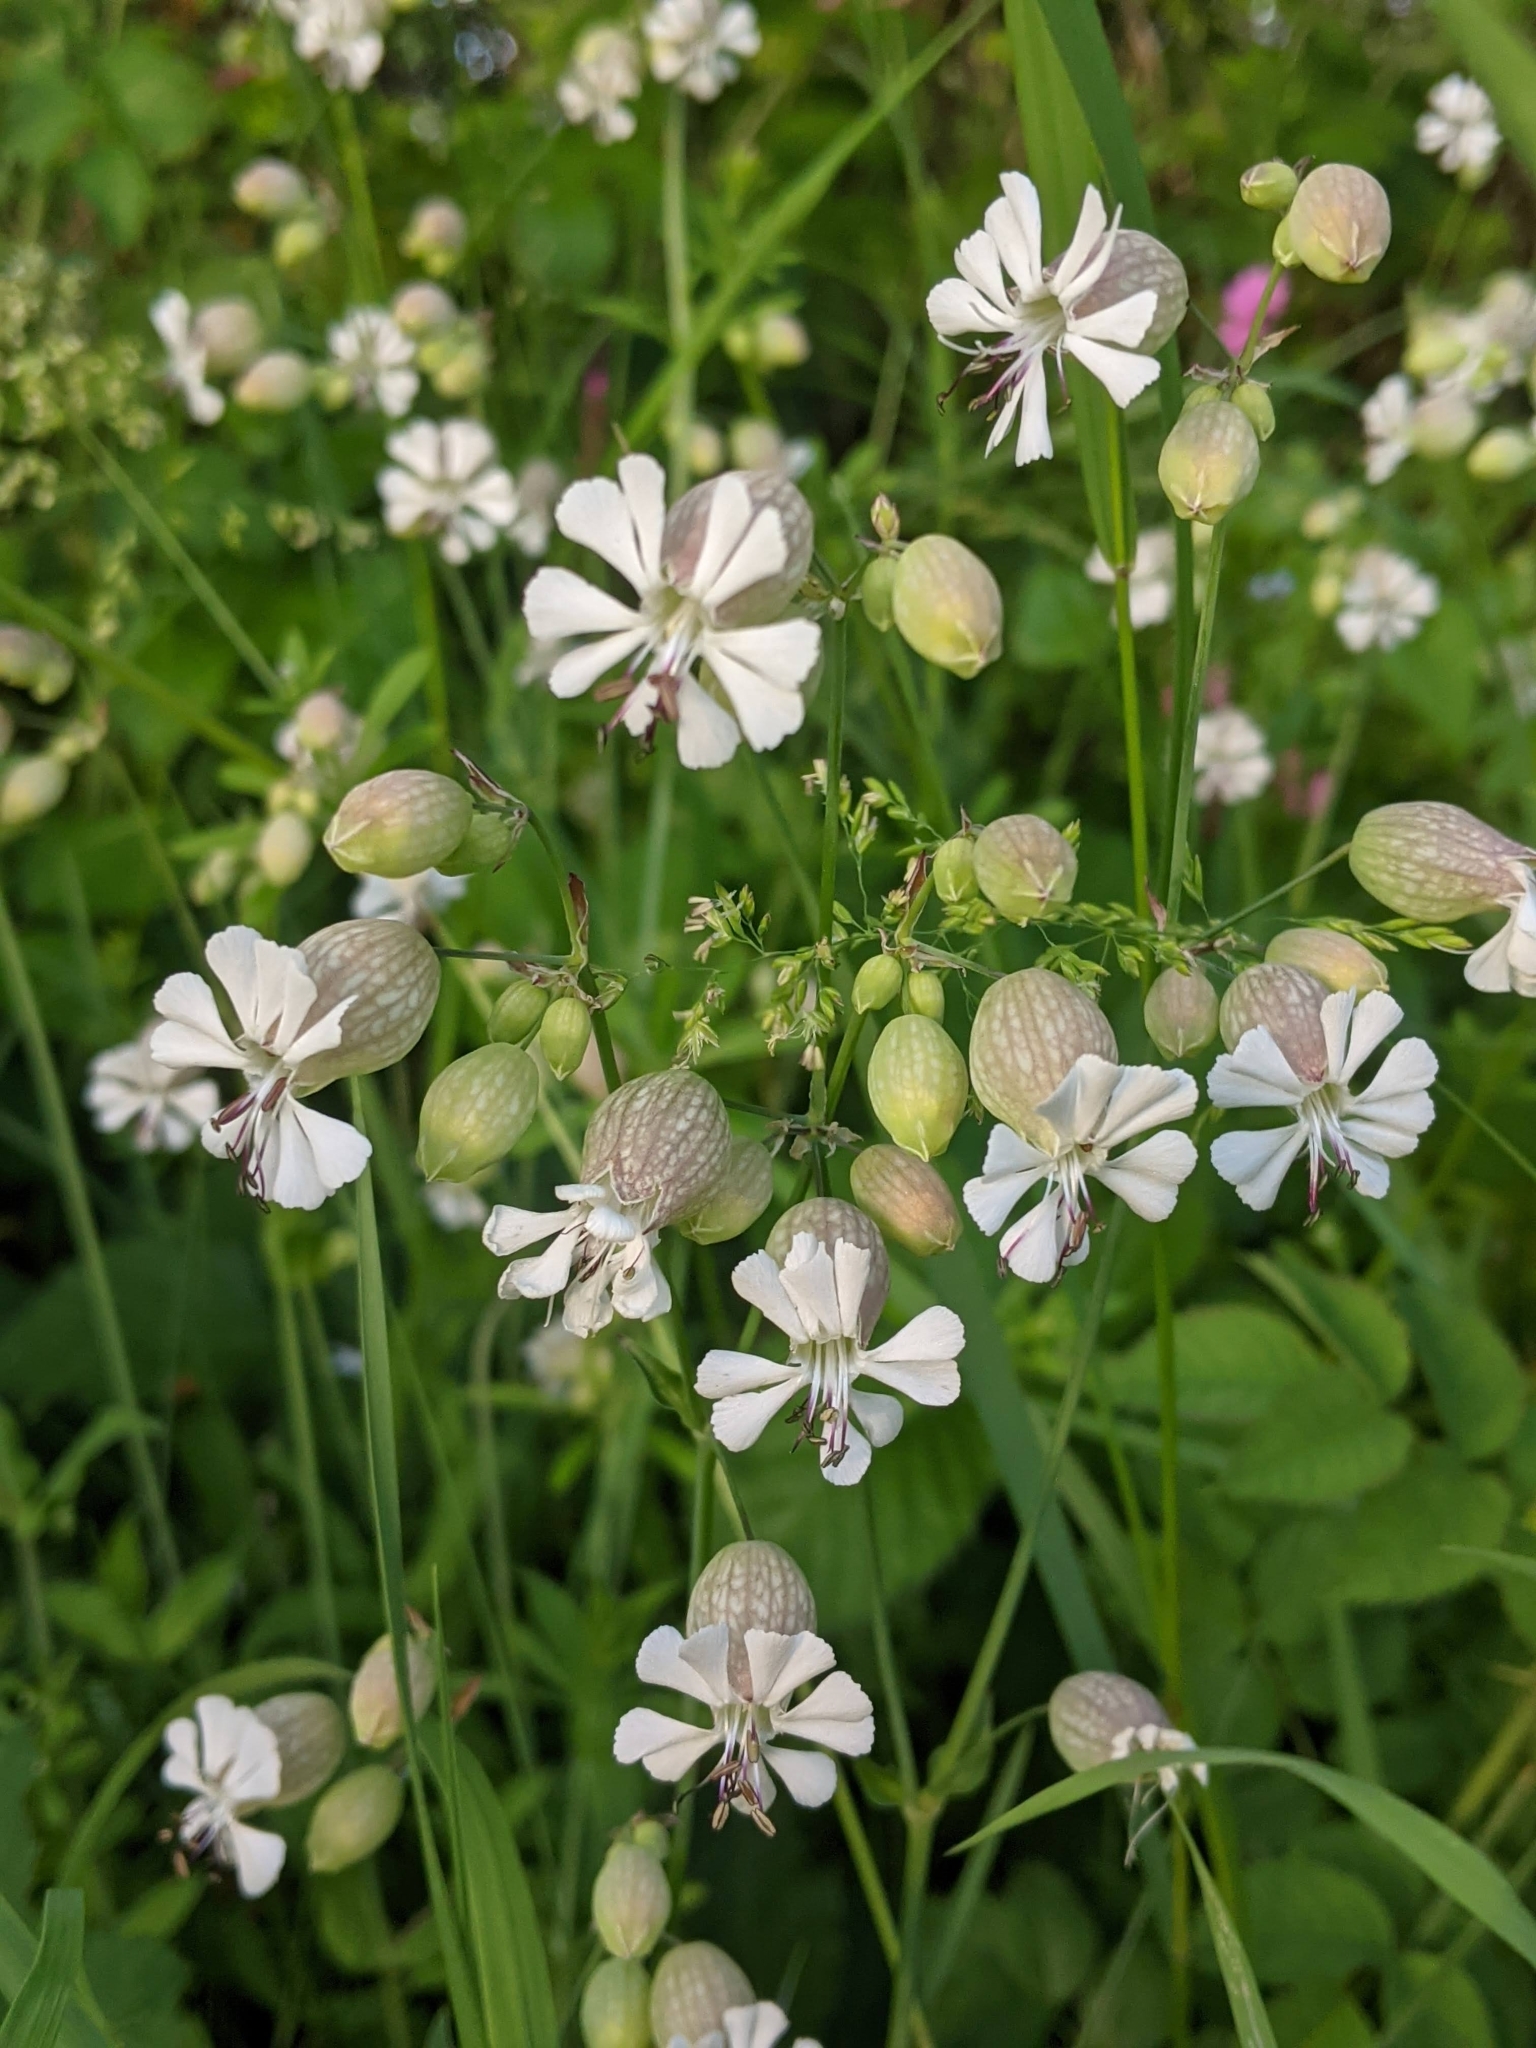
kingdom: Plantae
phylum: Tracheophyta
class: Magnoliopsida
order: Caryophyllales
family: Caryophyllaceae
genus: Silene
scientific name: Silene vulgaris
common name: Bladder campion
